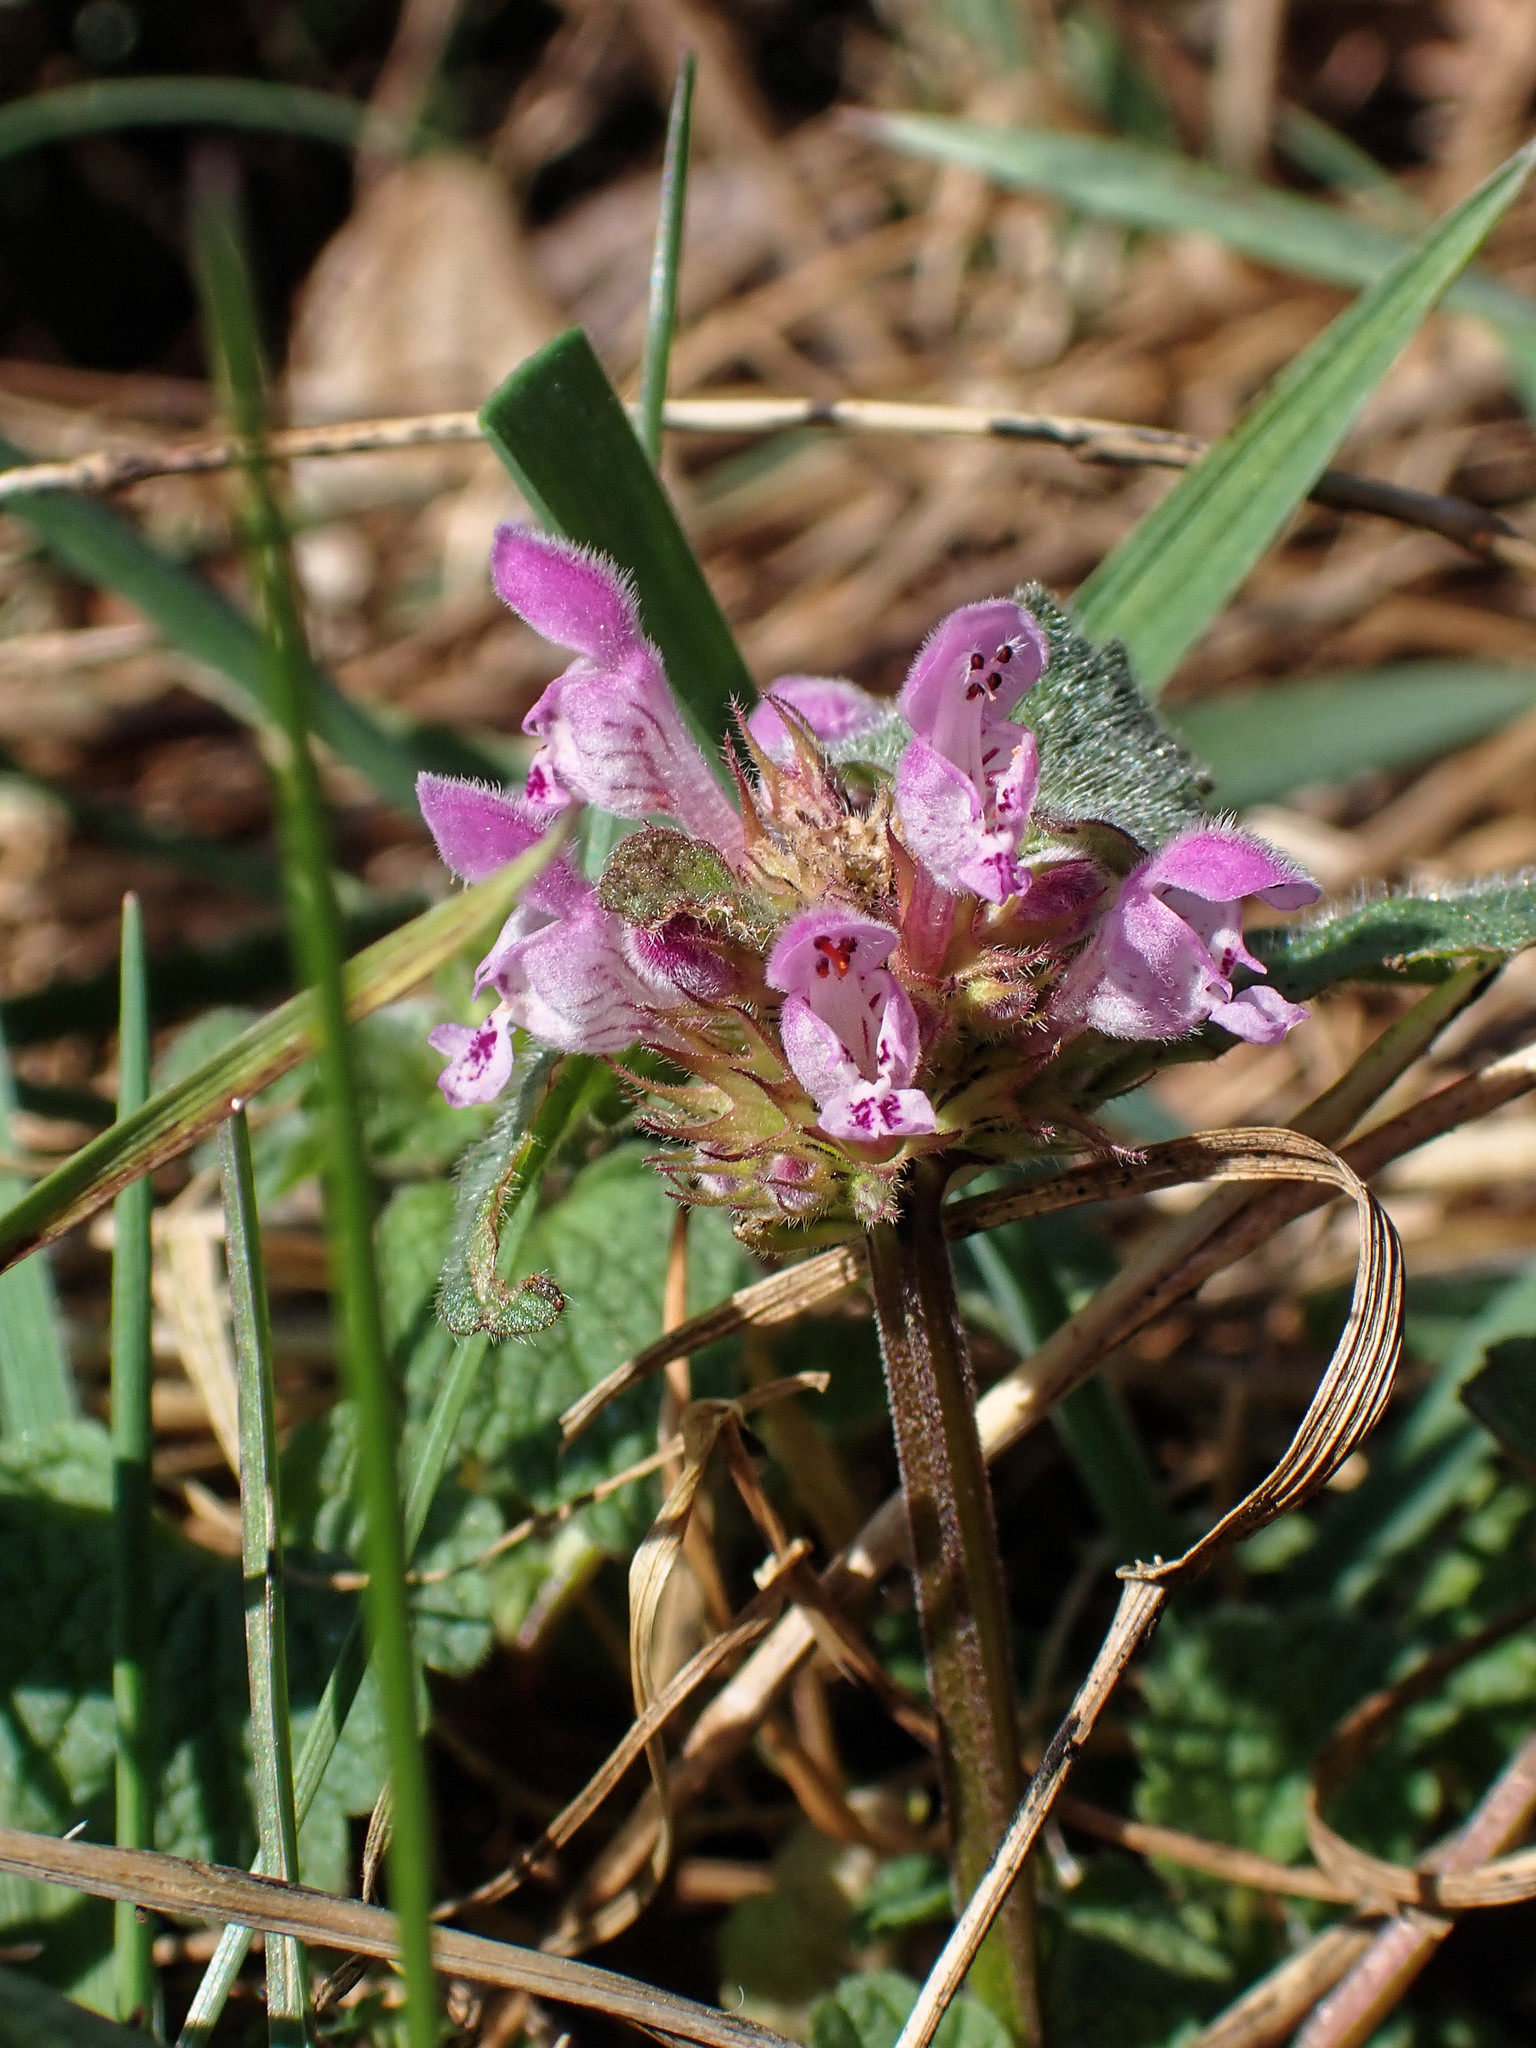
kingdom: Plantae
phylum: Tracheophyta
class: Magnoliopsida
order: Lamiales
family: Lamiaceae
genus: Lamium
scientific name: Lamium purpureum
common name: Red dead-nettle
